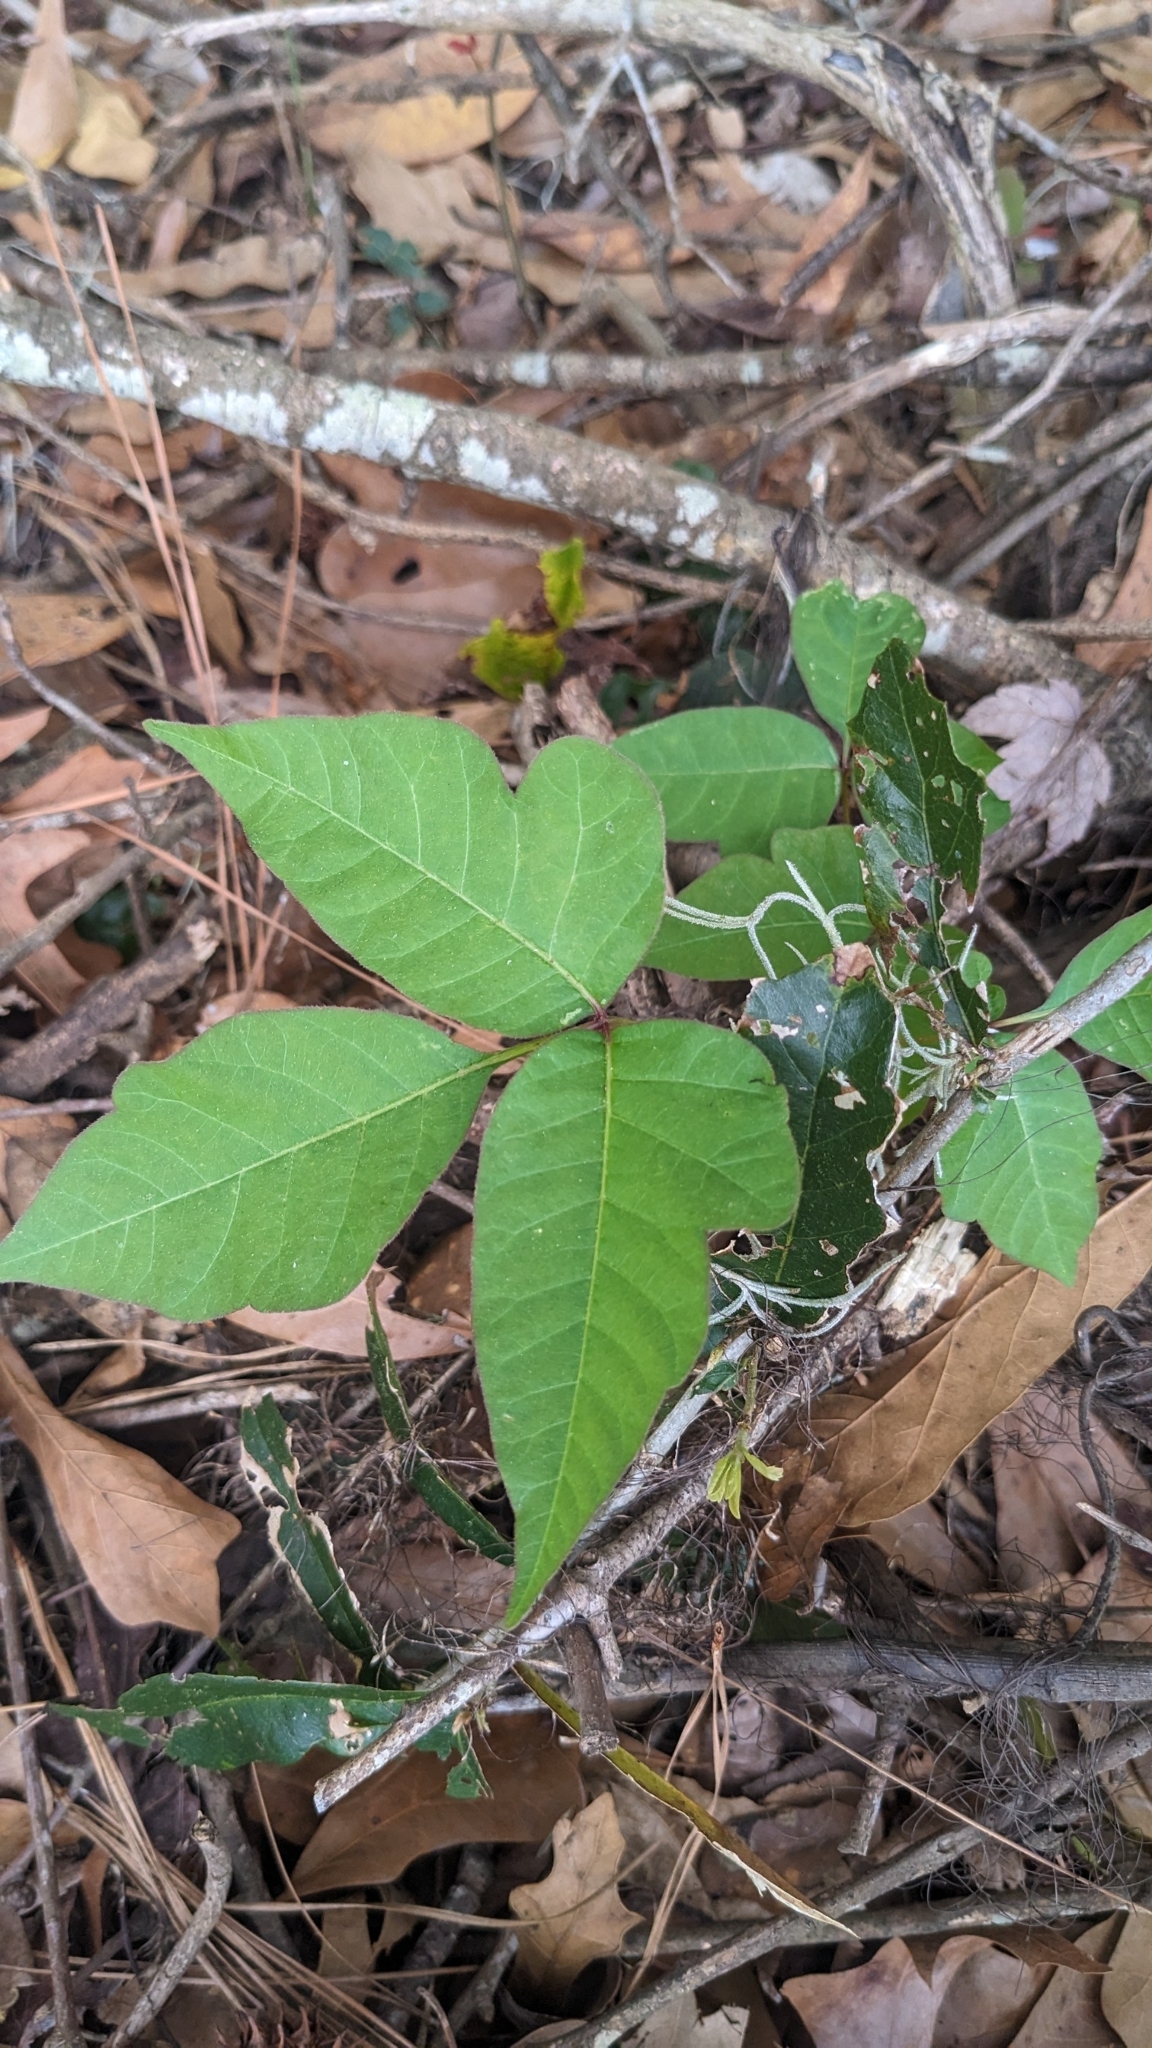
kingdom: Plantae
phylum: Tracheophyta
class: Magnoliopsida
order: Sapindales
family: Anacardiaceae
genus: Toxicodendron
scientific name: Toxicodendron radicans
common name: Poison ivy
